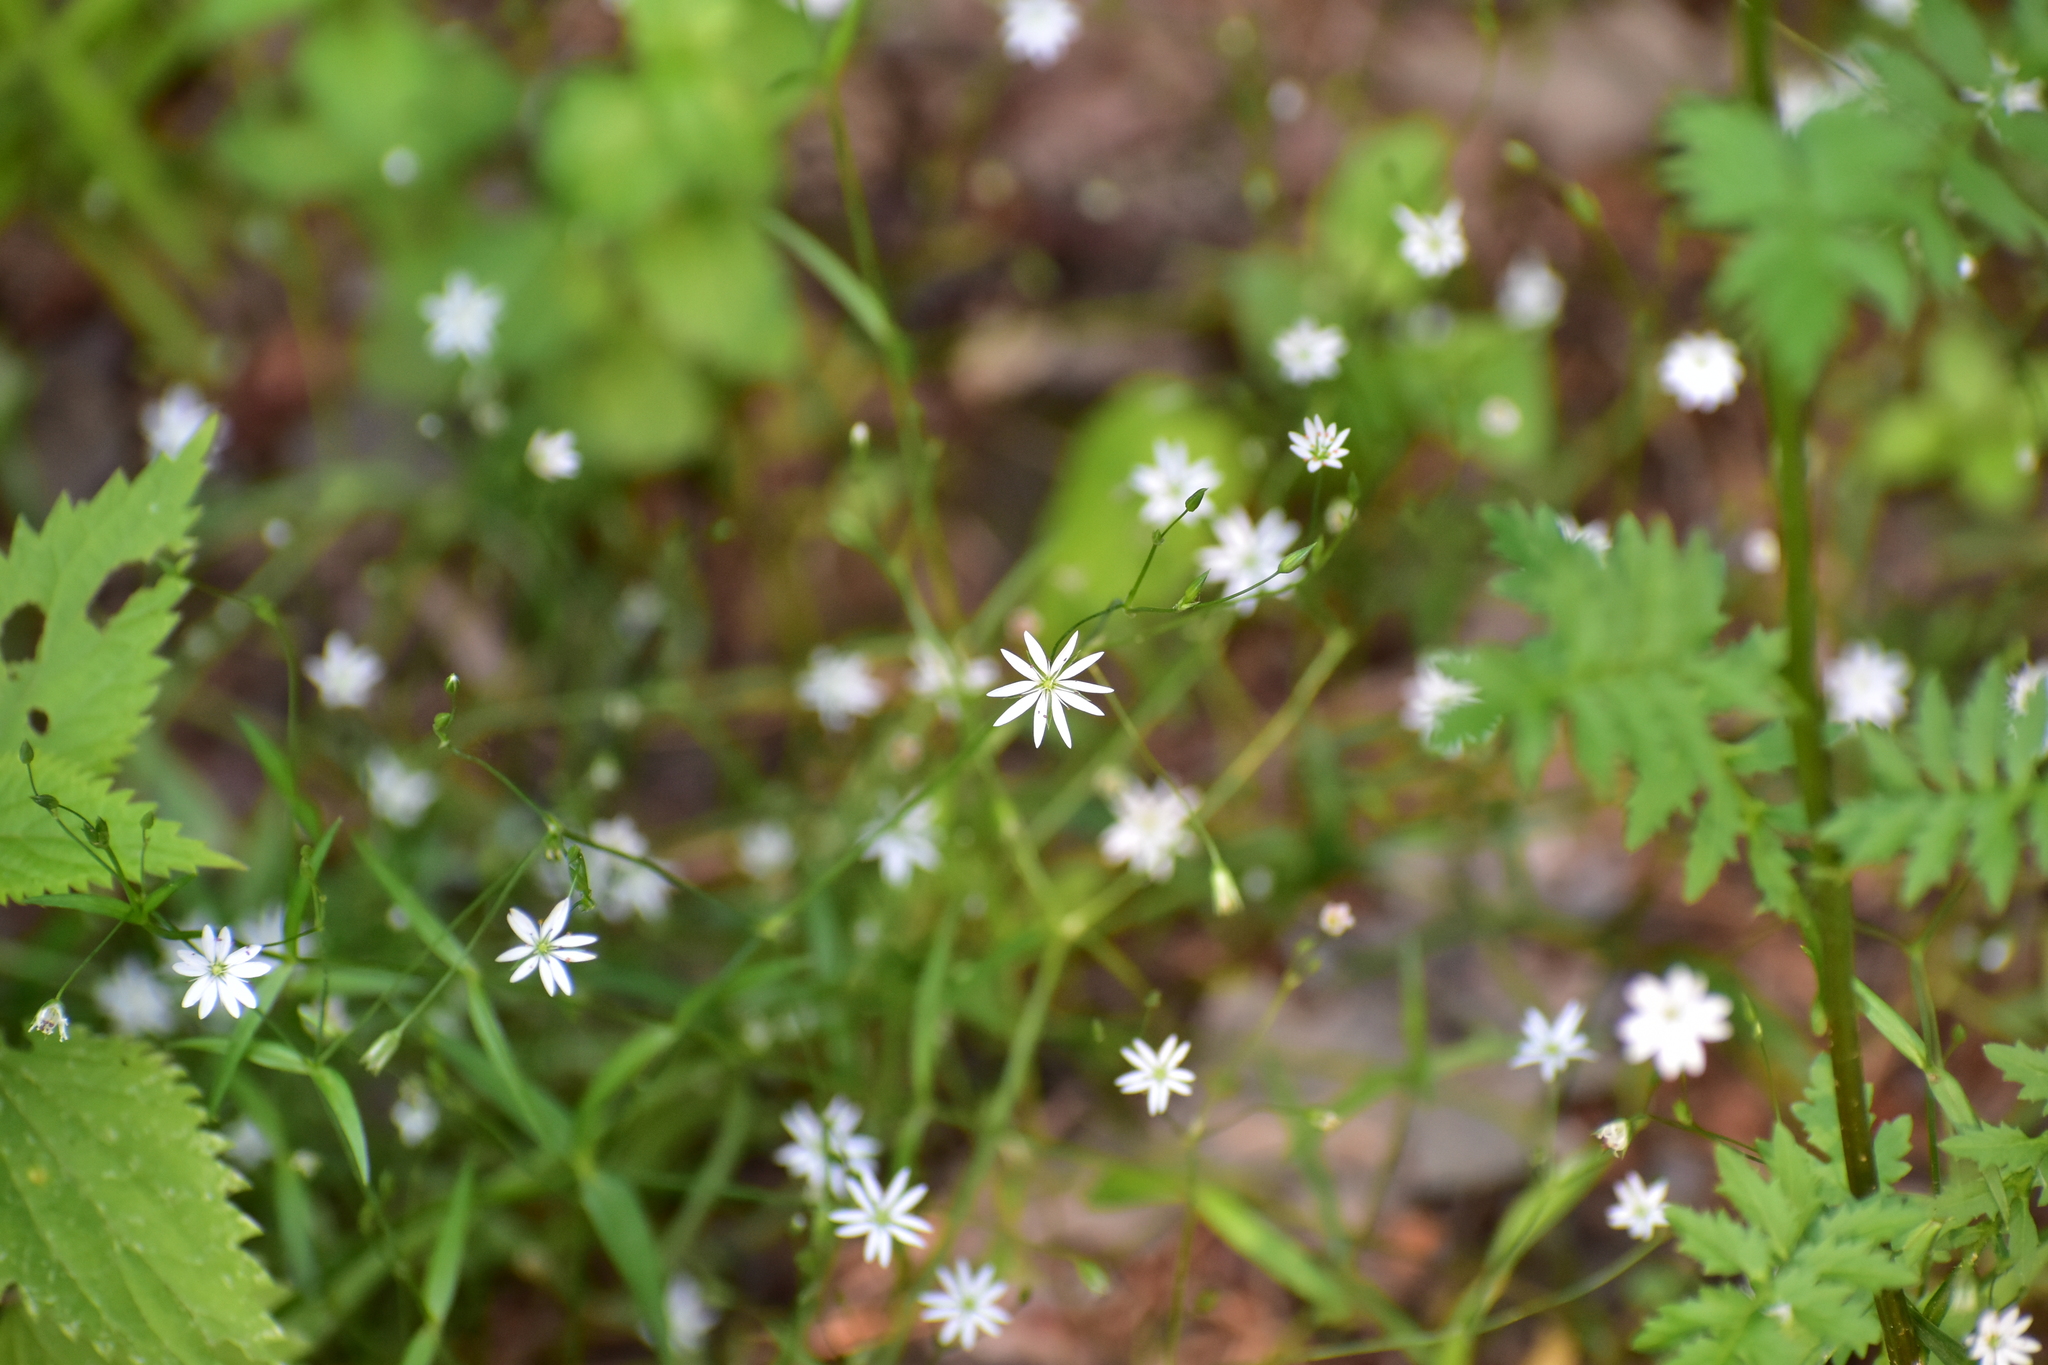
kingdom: Plantae
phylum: Tracheophyta
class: Magnoliopsida
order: Caryophyllales
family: Caryophyllaceae
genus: Stellaria
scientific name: Stellaria graminea
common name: Grass-like starwort
